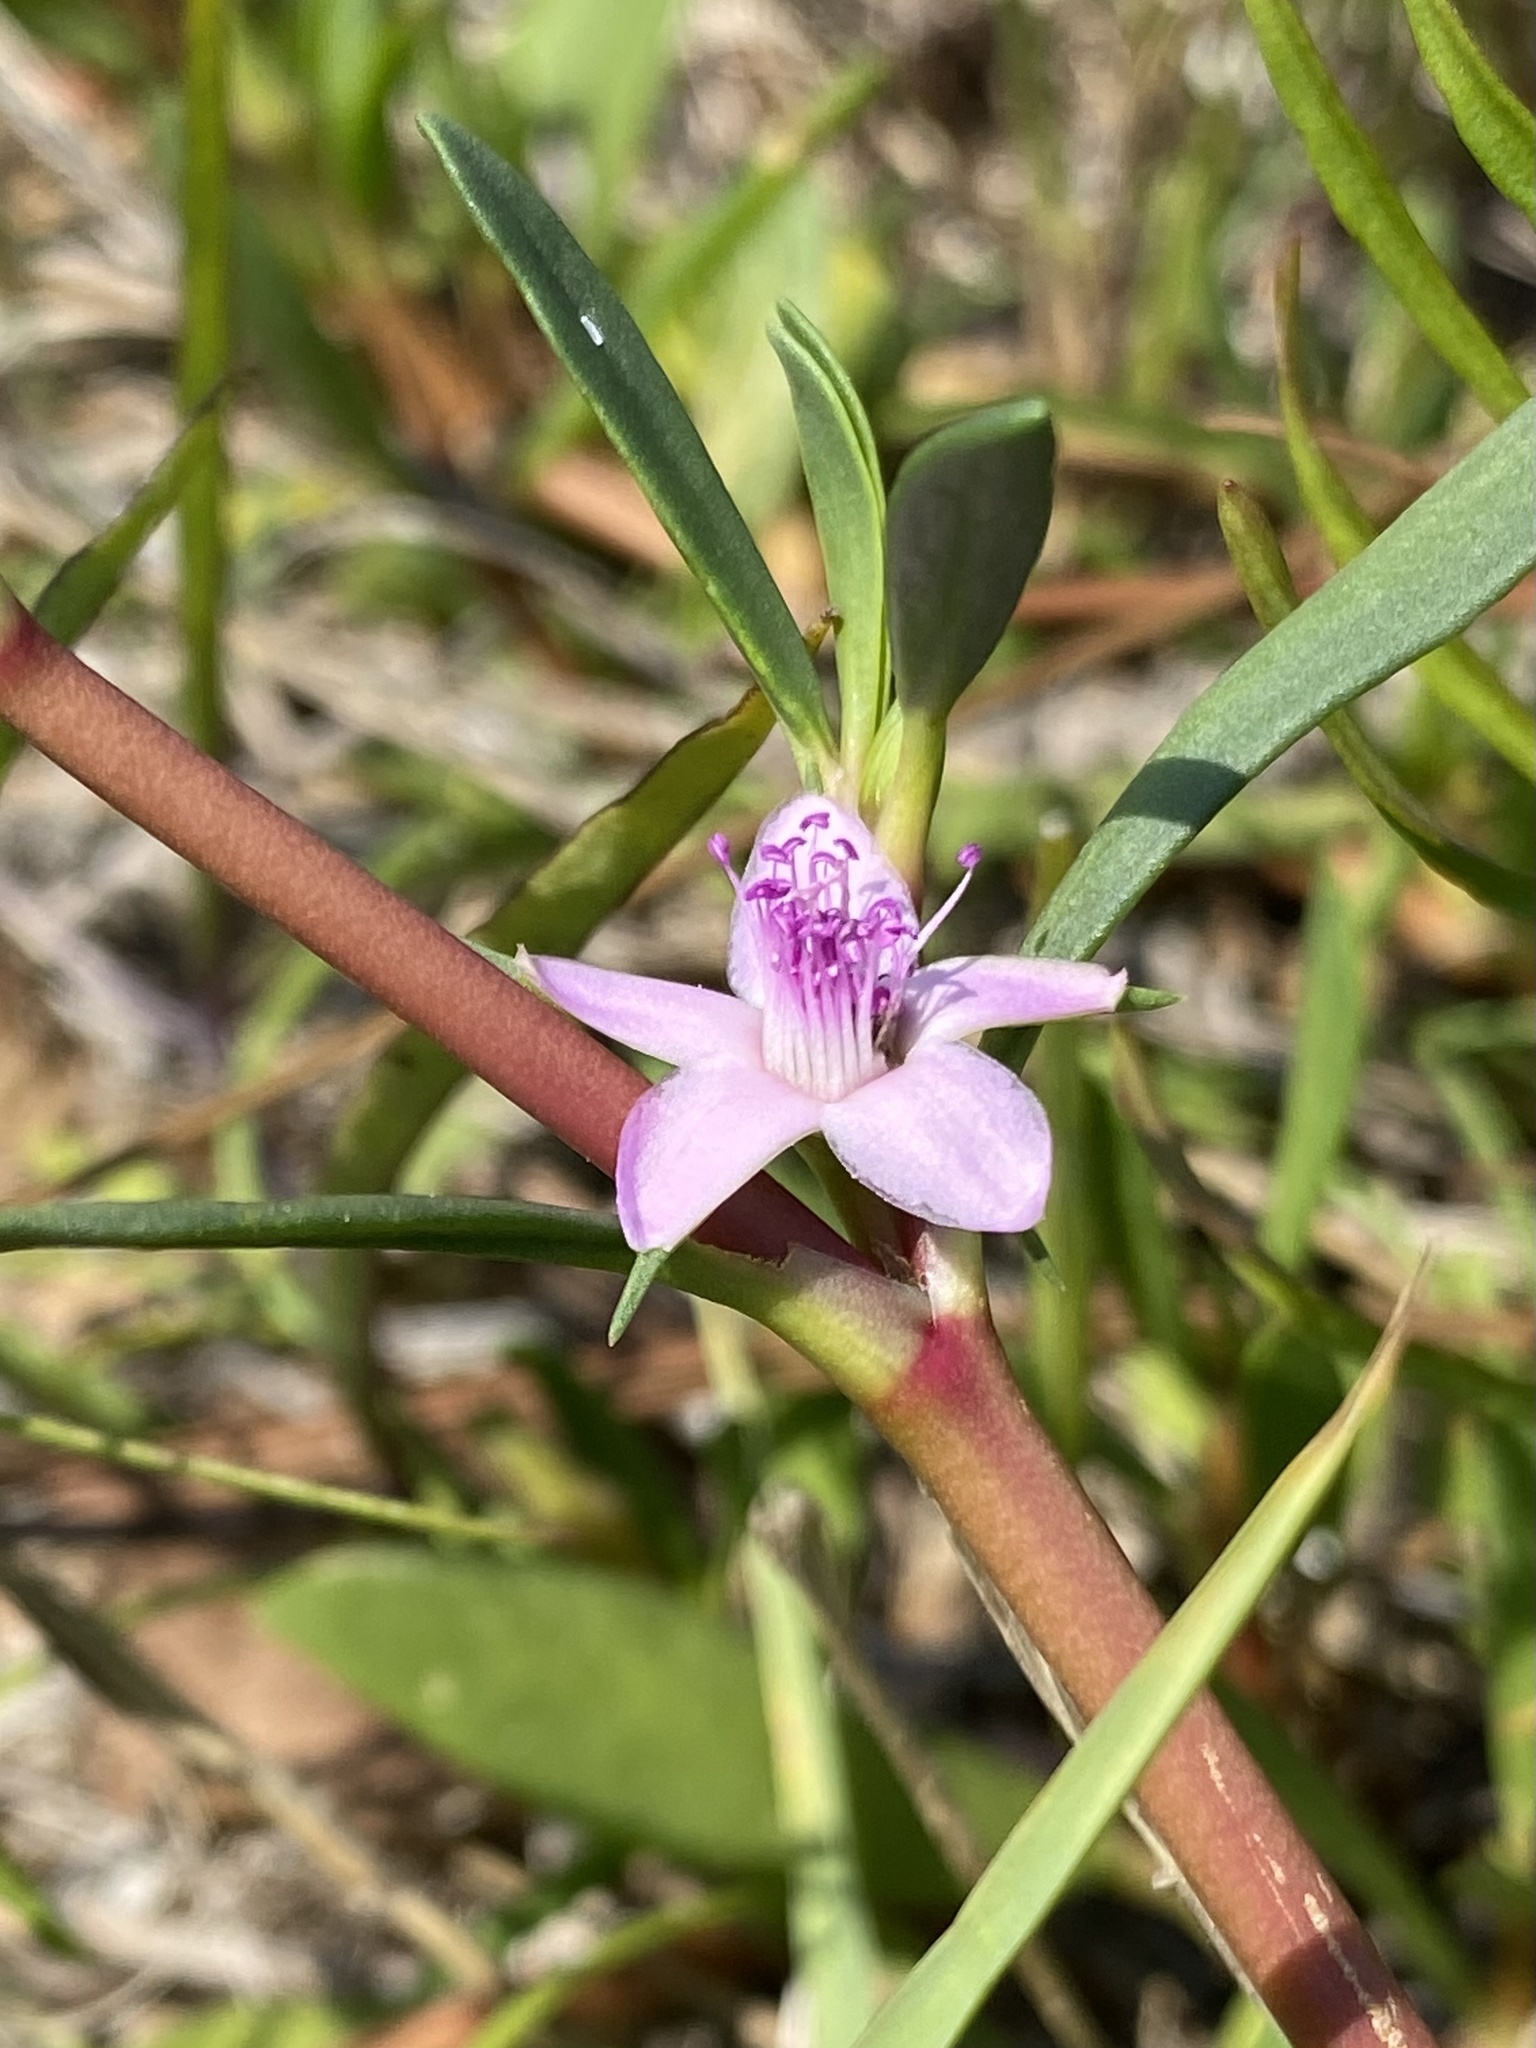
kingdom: Plantae
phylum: Tracheophyta
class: Magnoliopsida
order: Caryophyllales
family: Aizoaceae
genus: Sesuvium
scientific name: Sesuvium portulacastrum
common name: Sea-purslane
